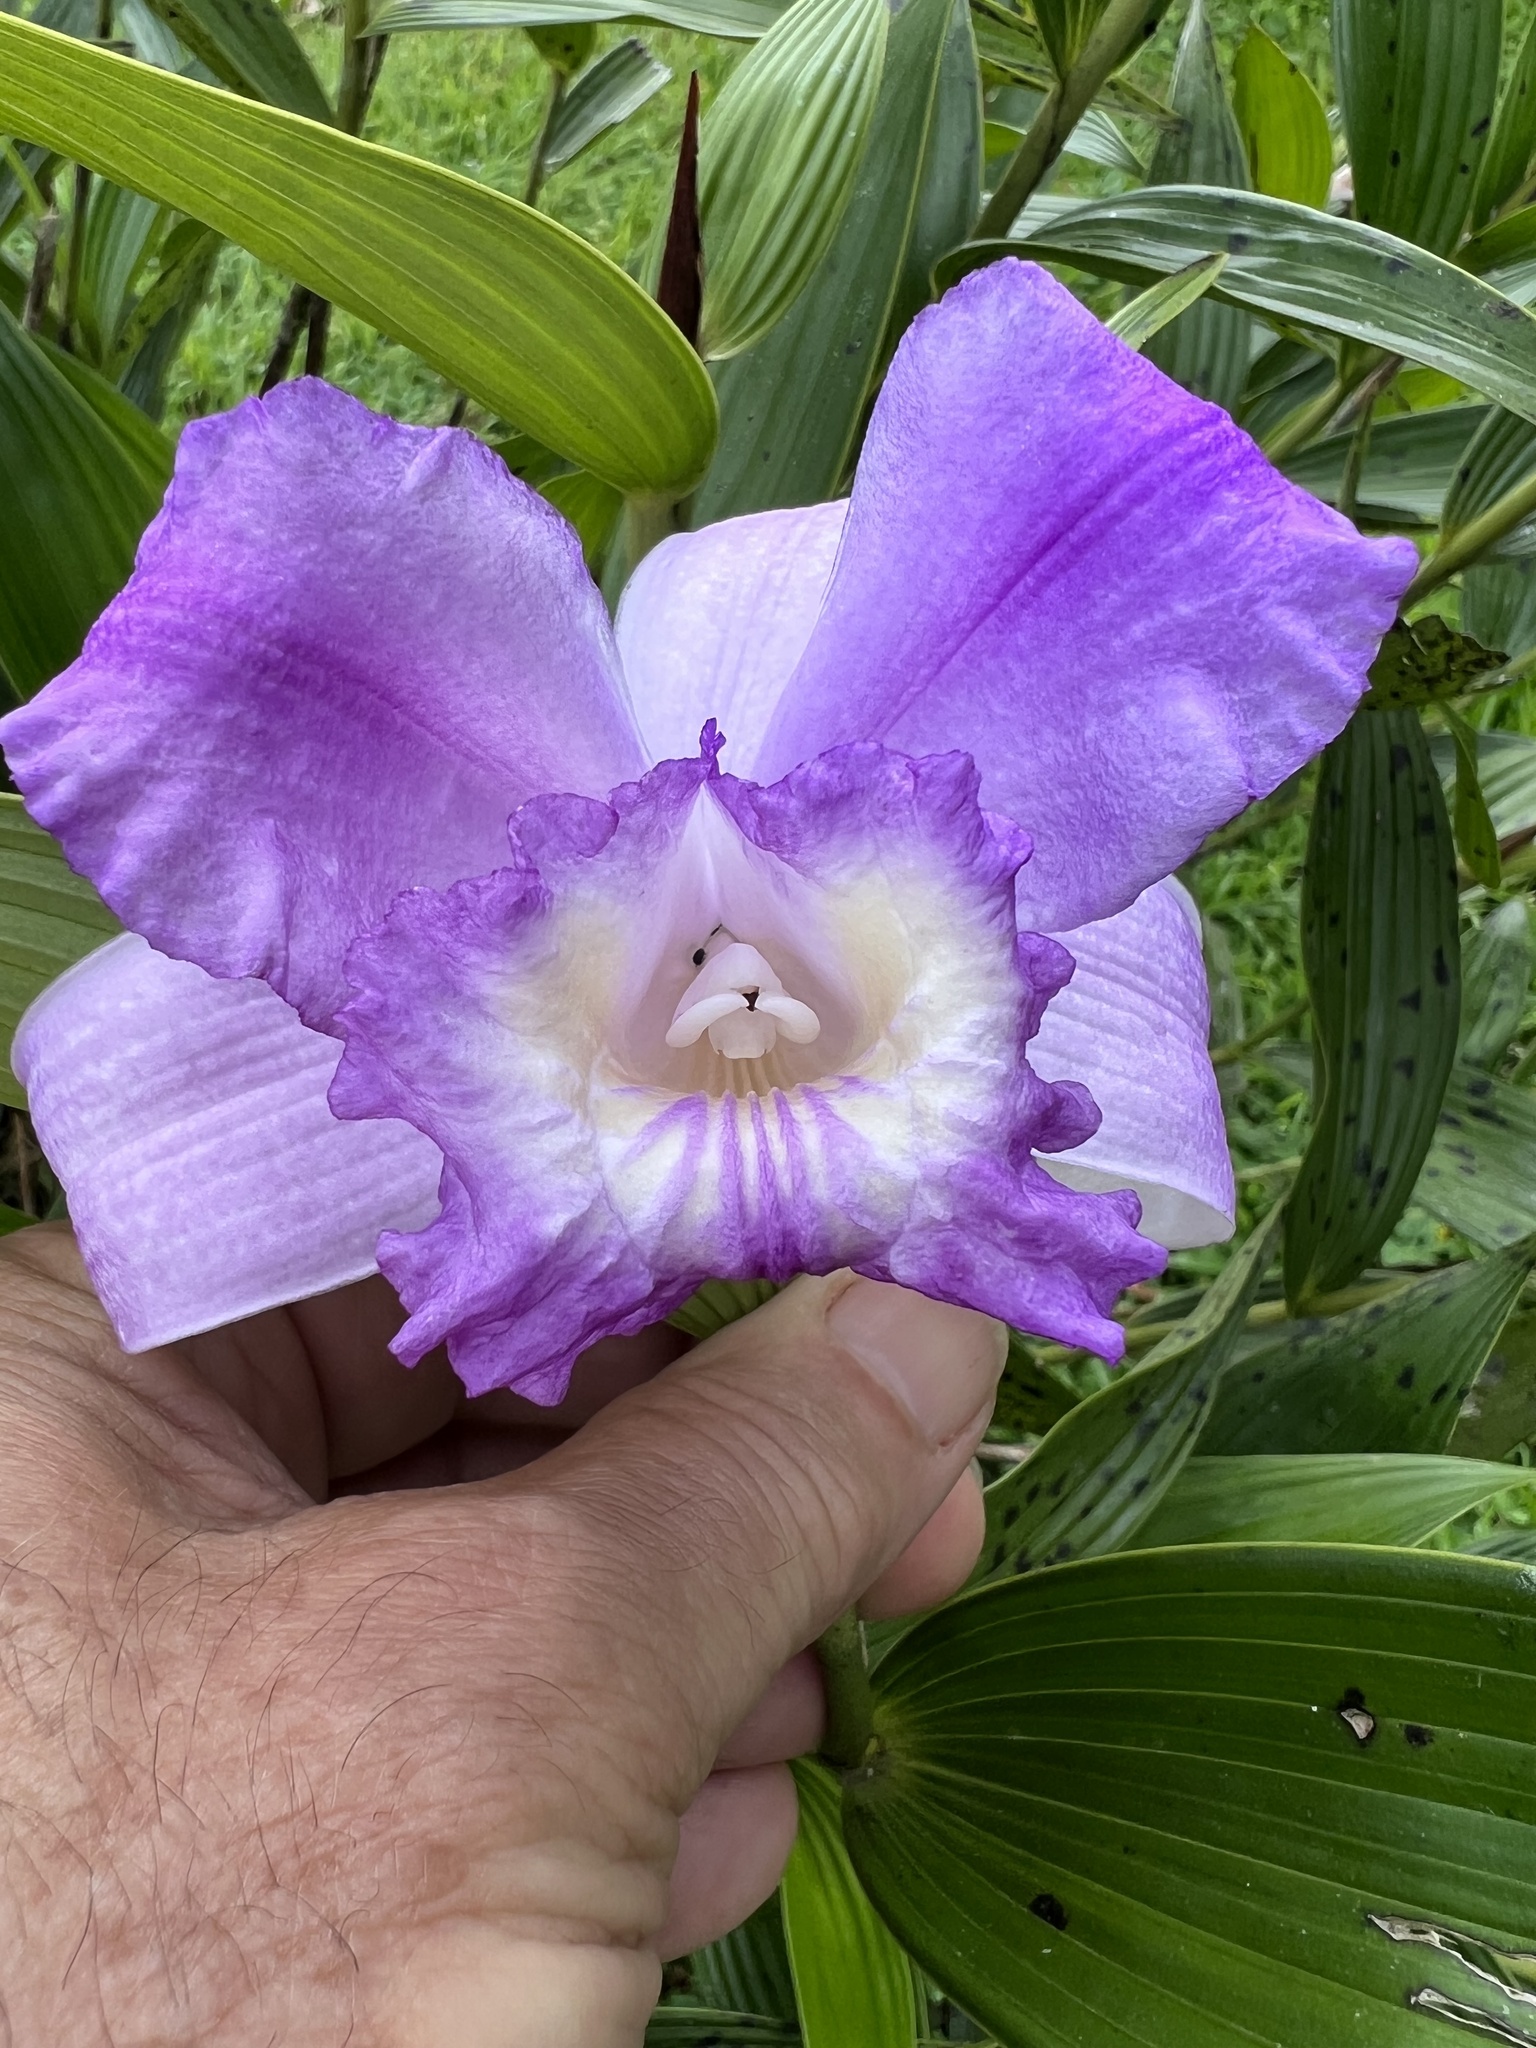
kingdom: Plantae
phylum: Tracheophyta
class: Liliopsida
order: Asparagales
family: Orchidaceae
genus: Sobralia
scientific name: Sobralia violacea
